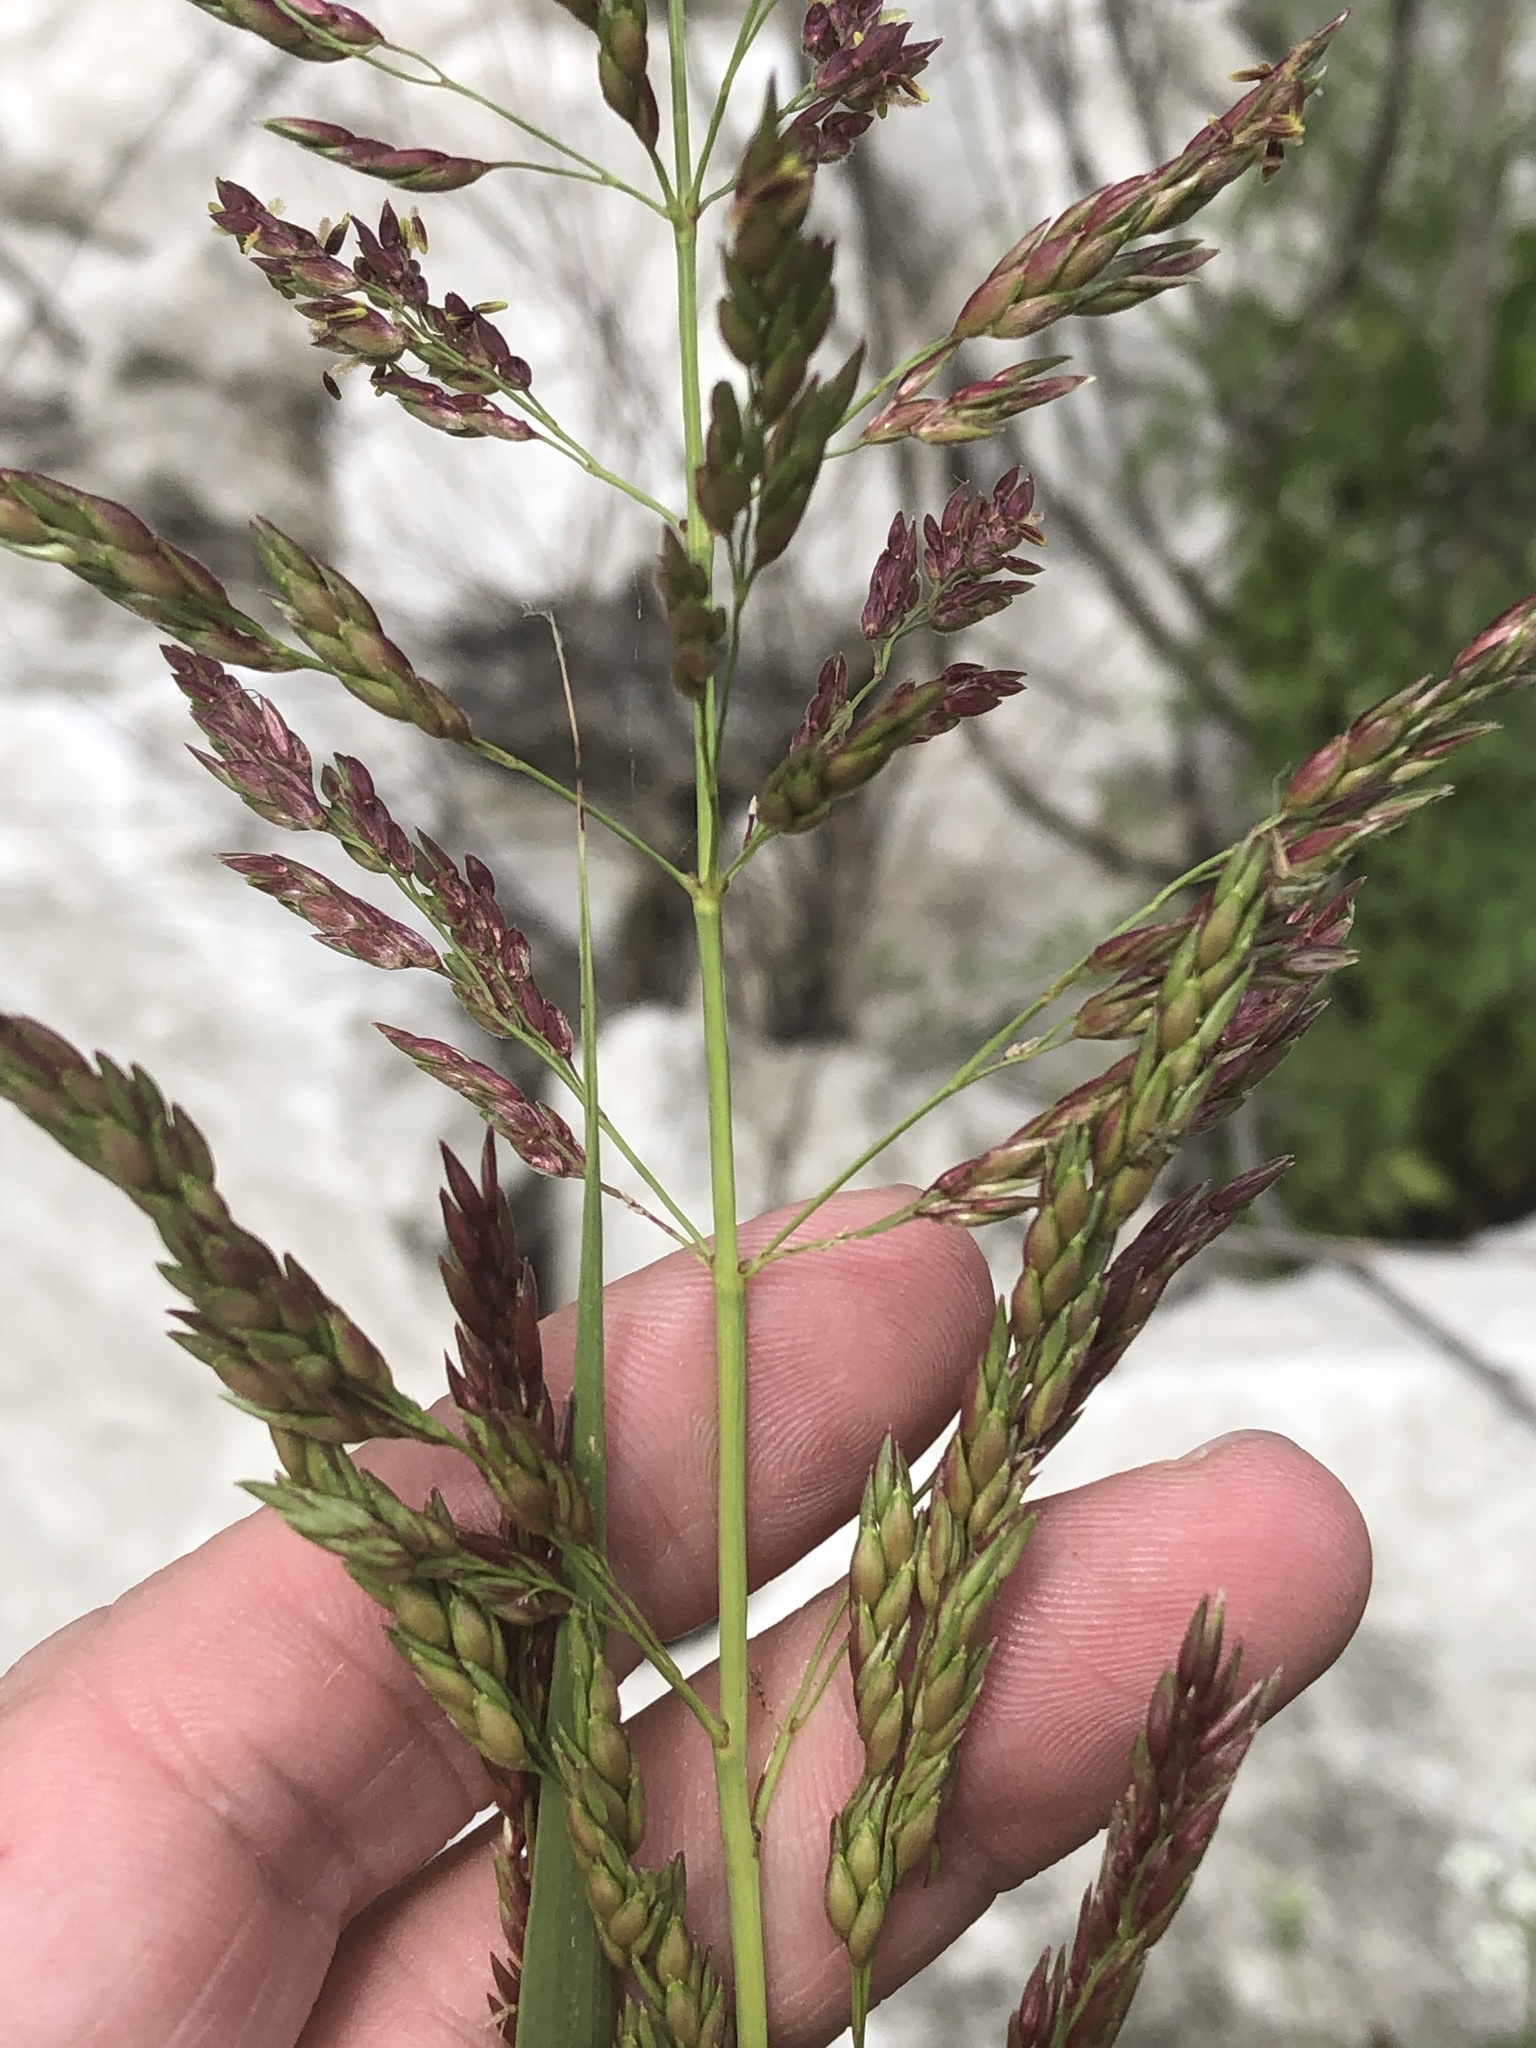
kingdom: Plantae
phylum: Tracheophyta
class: Liliopsida
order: Poales
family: Poaceae
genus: Sorghum
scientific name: Sorghum halepense
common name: Johnson-grass
